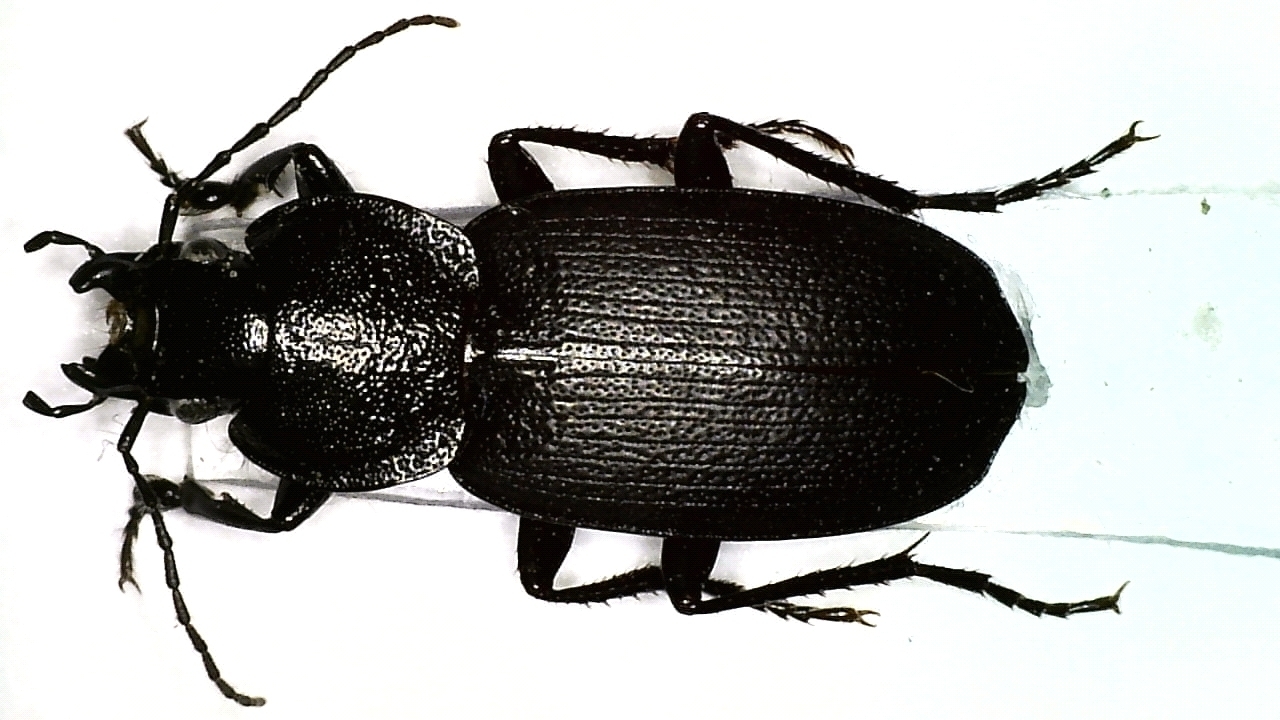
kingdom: Animalia
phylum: Arthropoda
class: Insecta
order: Coleoptera
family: Carabidae
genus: Licinus
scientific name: Licinus depressus
